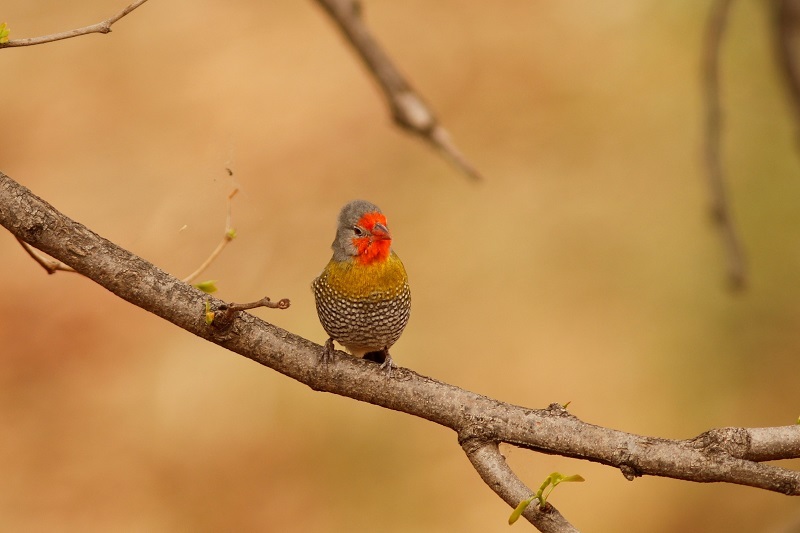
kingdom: Animalia
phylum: Chordata
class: Aves
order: Passeriformes
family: Estrildidae
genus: Pytilia
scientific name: Pytilia melba
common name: Green-winged pytilia
